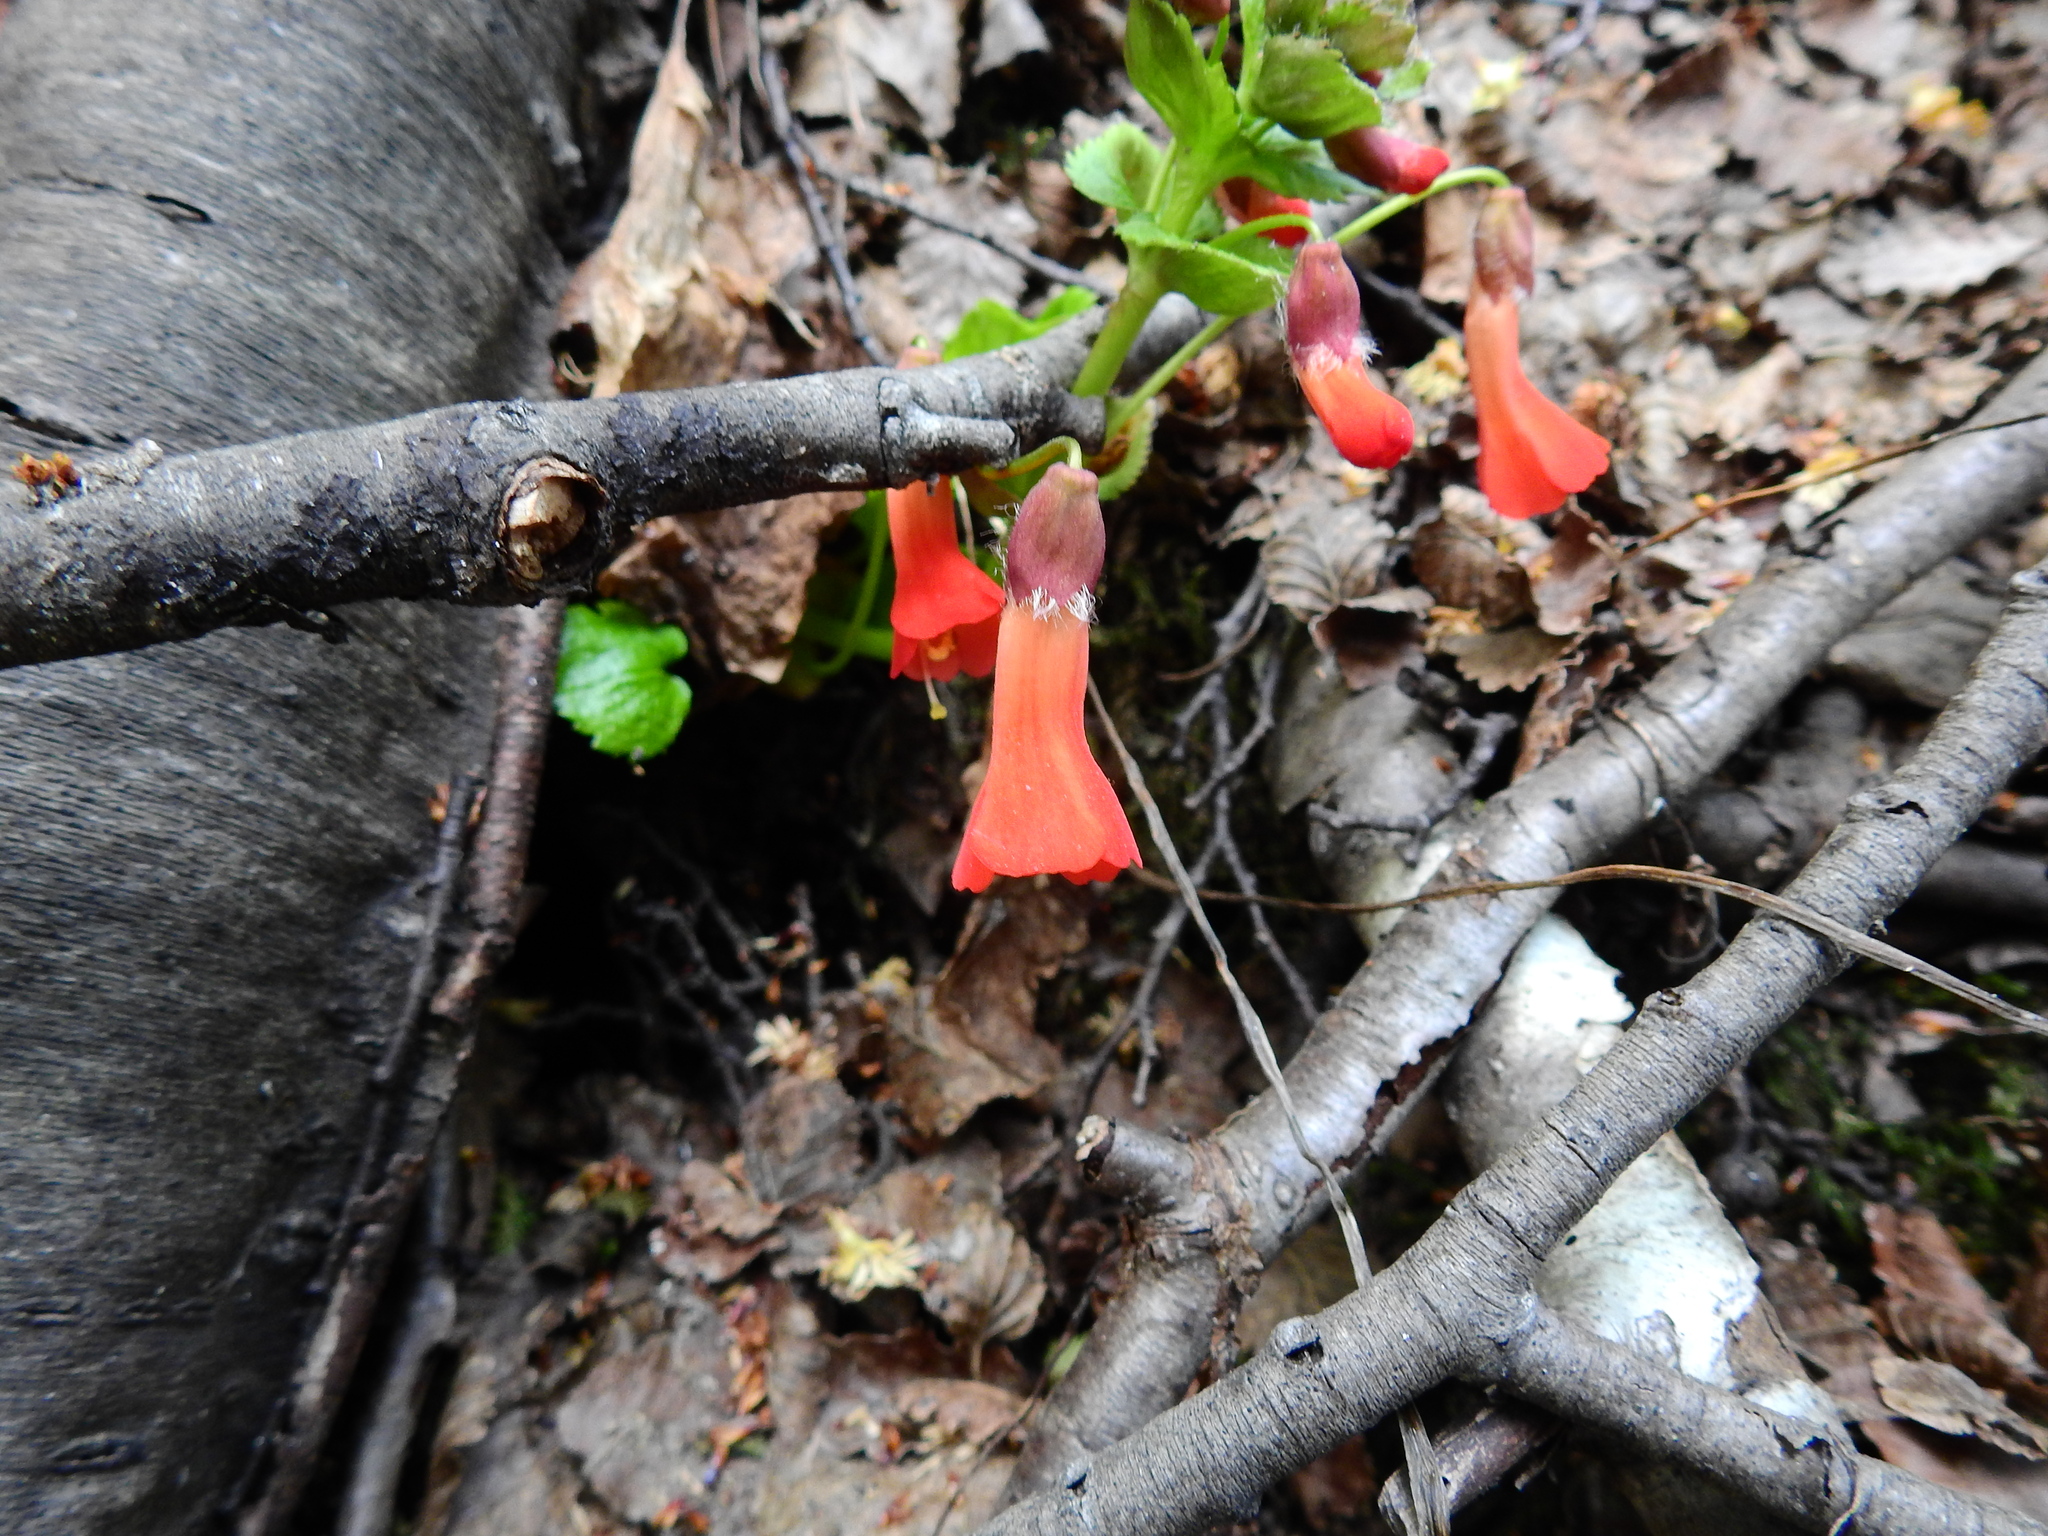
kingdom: Plantae
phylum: Tracheophyta
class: Magnoliopsida
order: Lamiales
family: Plantaginaceae
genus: Ourisia
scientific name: Ourisia ruellioides
